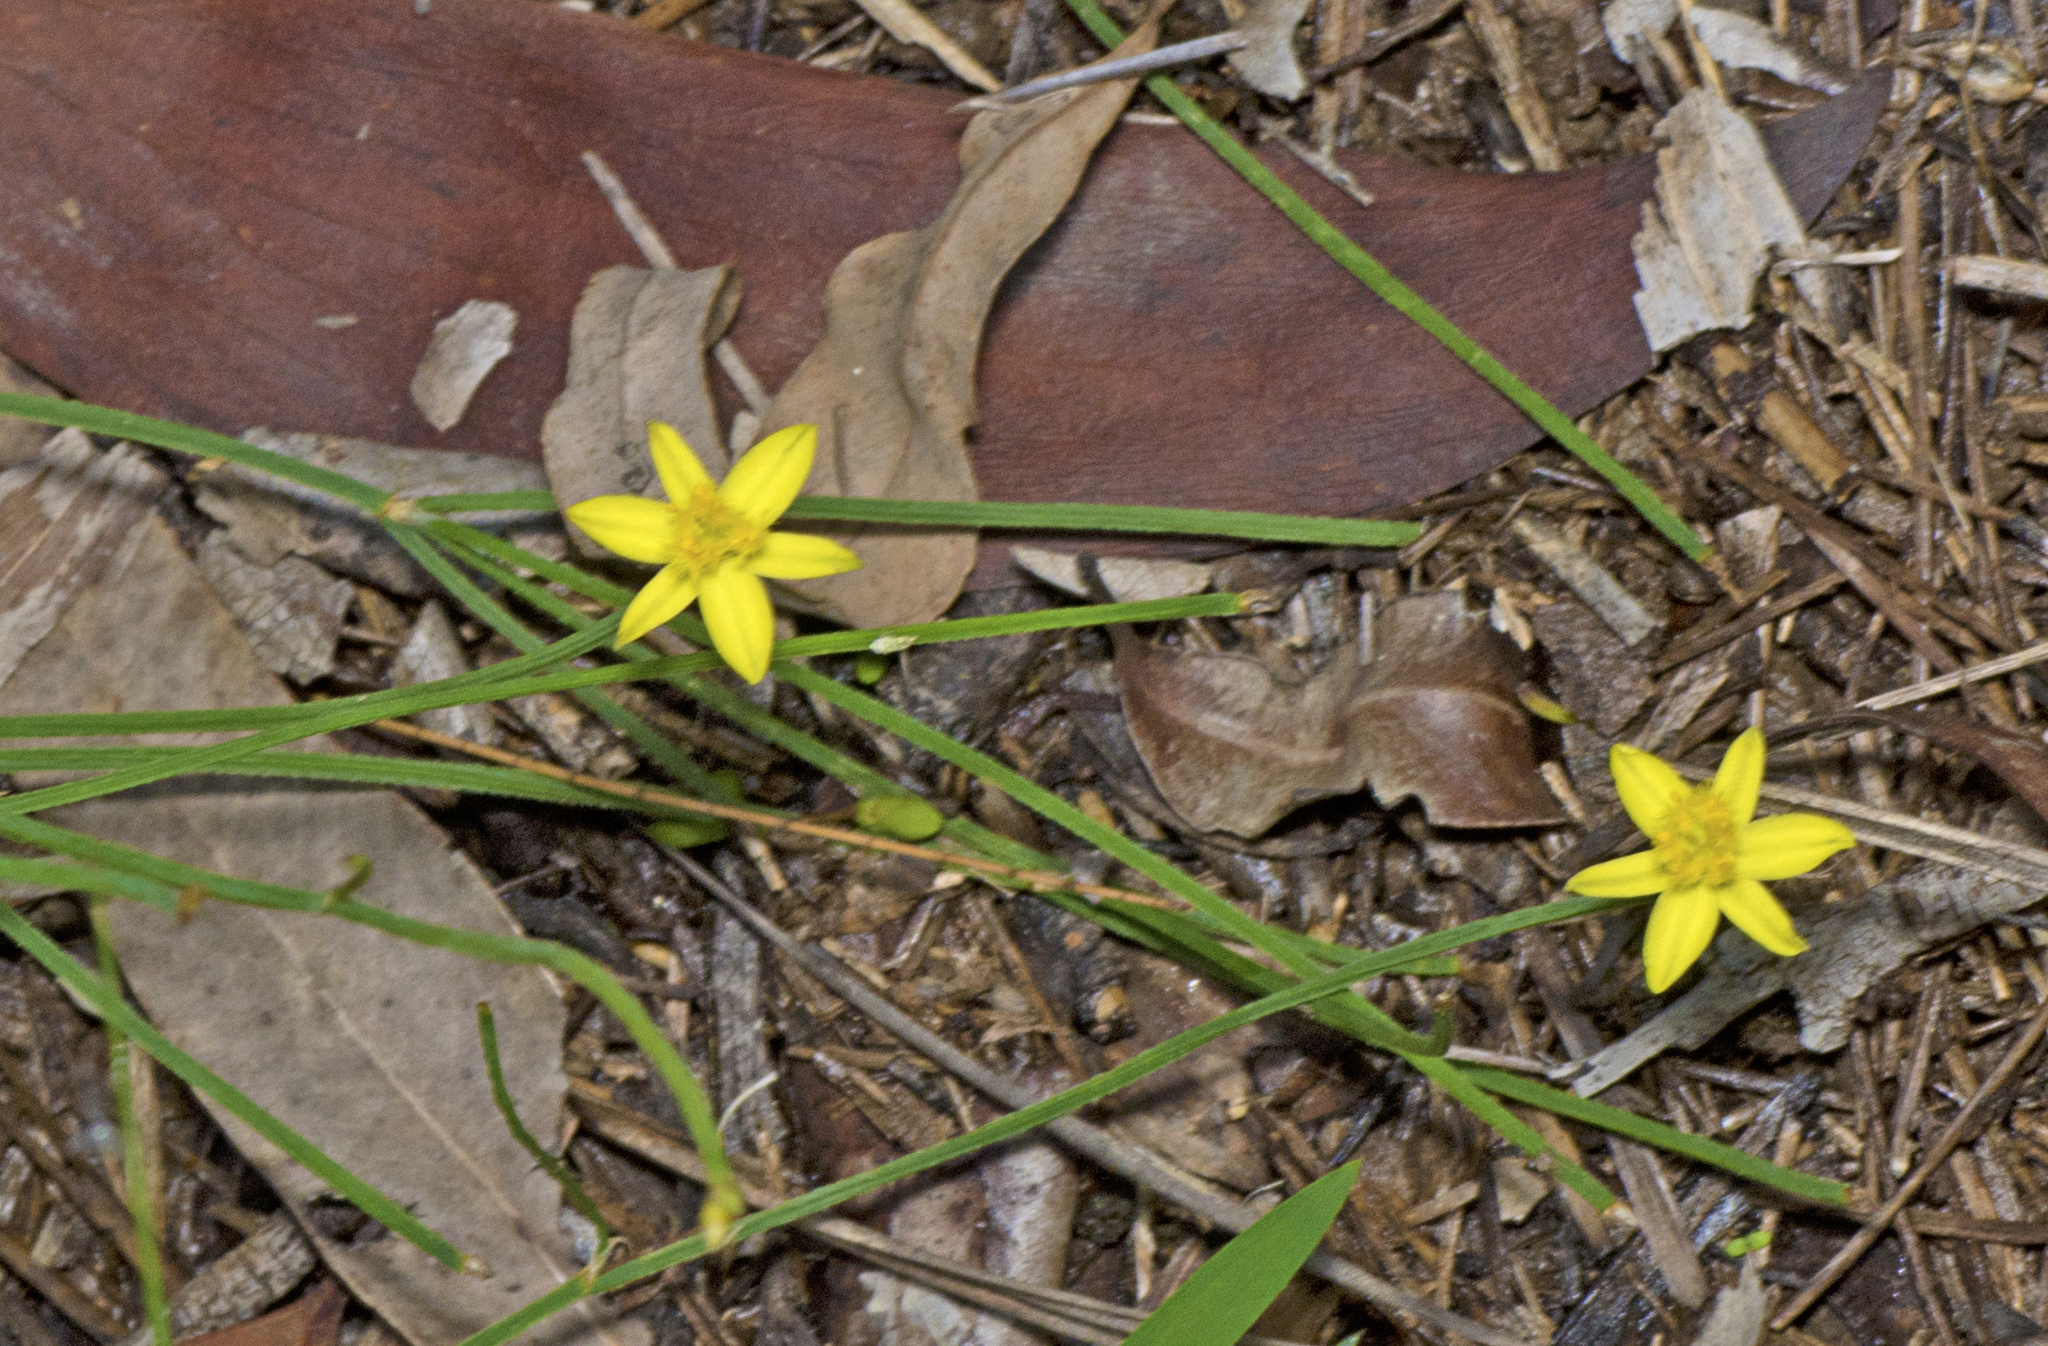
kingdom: Plantae
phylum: Tracheophyta
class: Liliopsida
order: Asparagales
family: Asphodelaceae
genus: Tricoryne
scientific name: Tricoryne anceps
